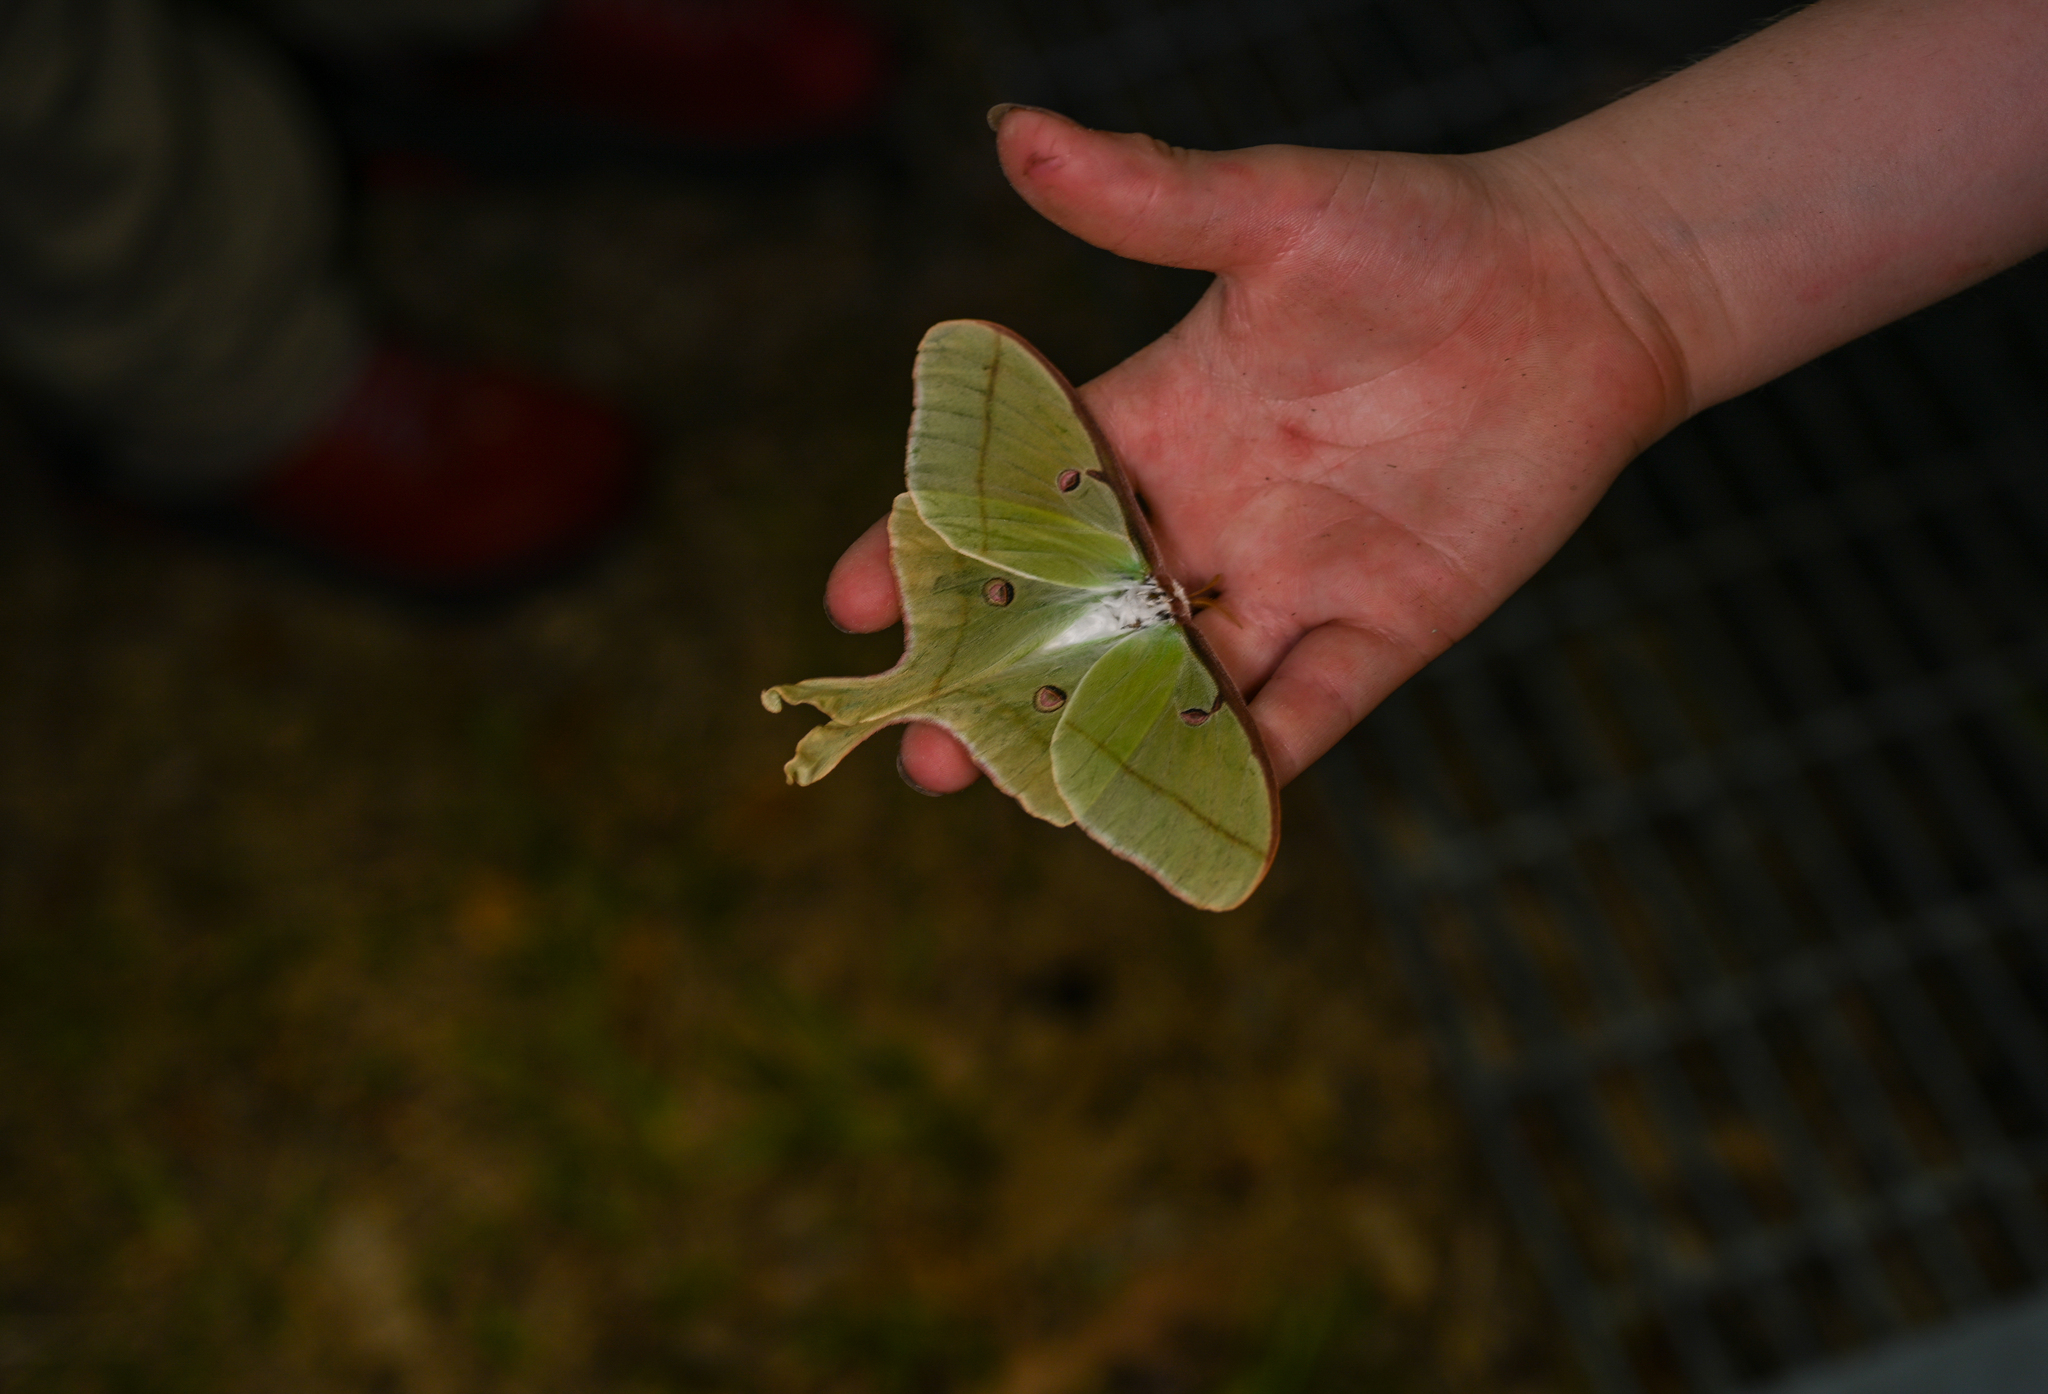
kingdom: Animalia
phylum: Arthropoda
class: Insecta
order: Lepidoptera
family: Saturniidae
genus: Actias
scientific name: Actias luna
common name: Luna moth
